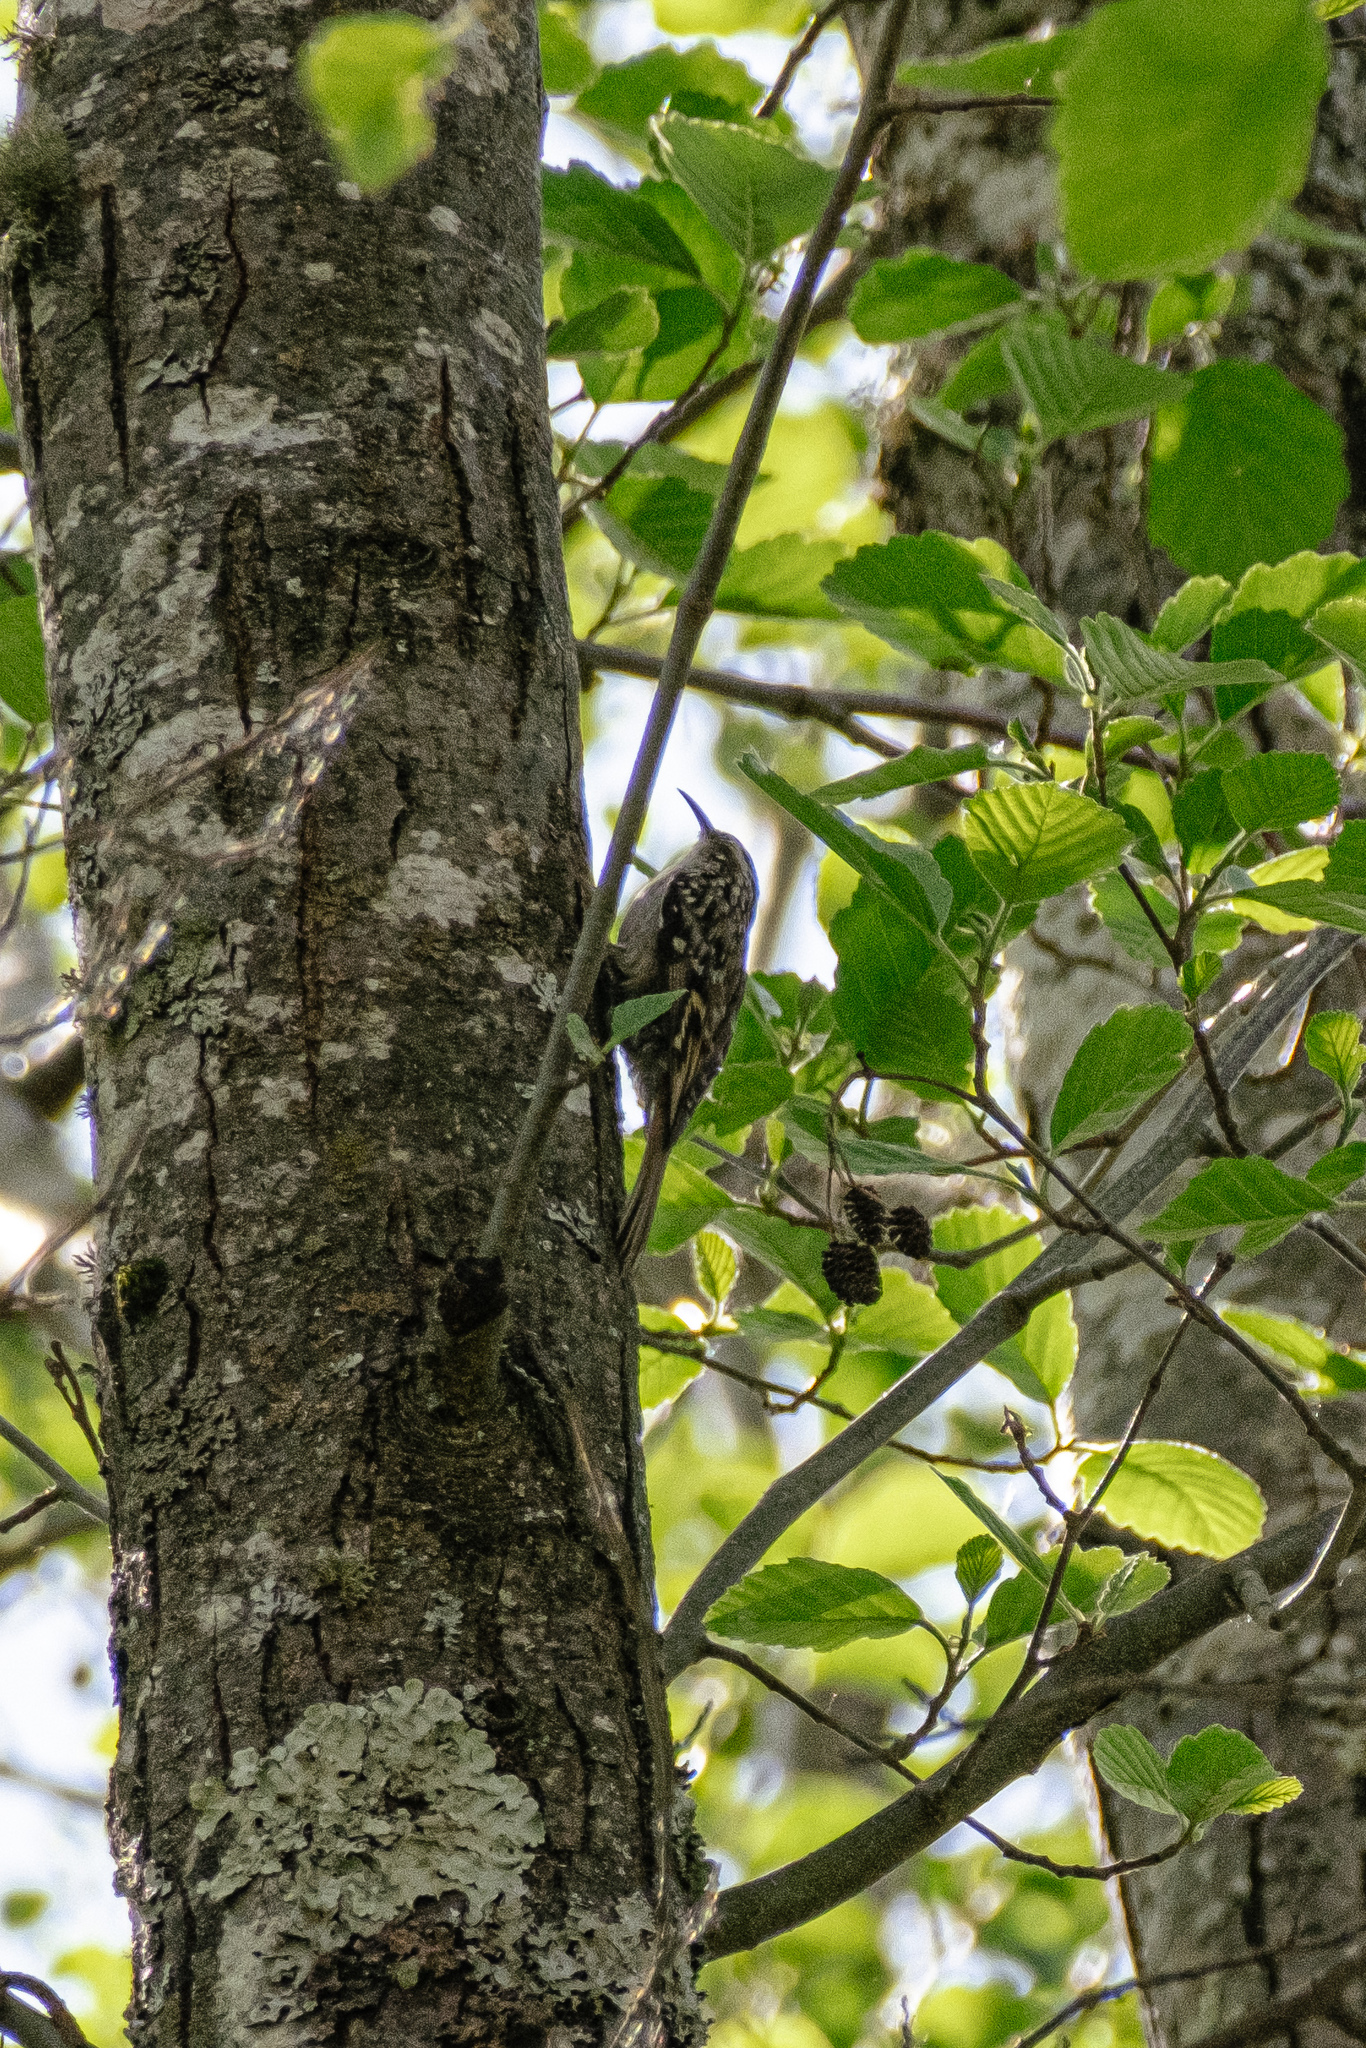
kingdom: Animalia
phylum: Chordata
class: Aves
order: Passeriformes
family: Certhiidae
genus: Certhia
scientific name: Certhia brachydactyla
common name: Short-toed treecreeper
